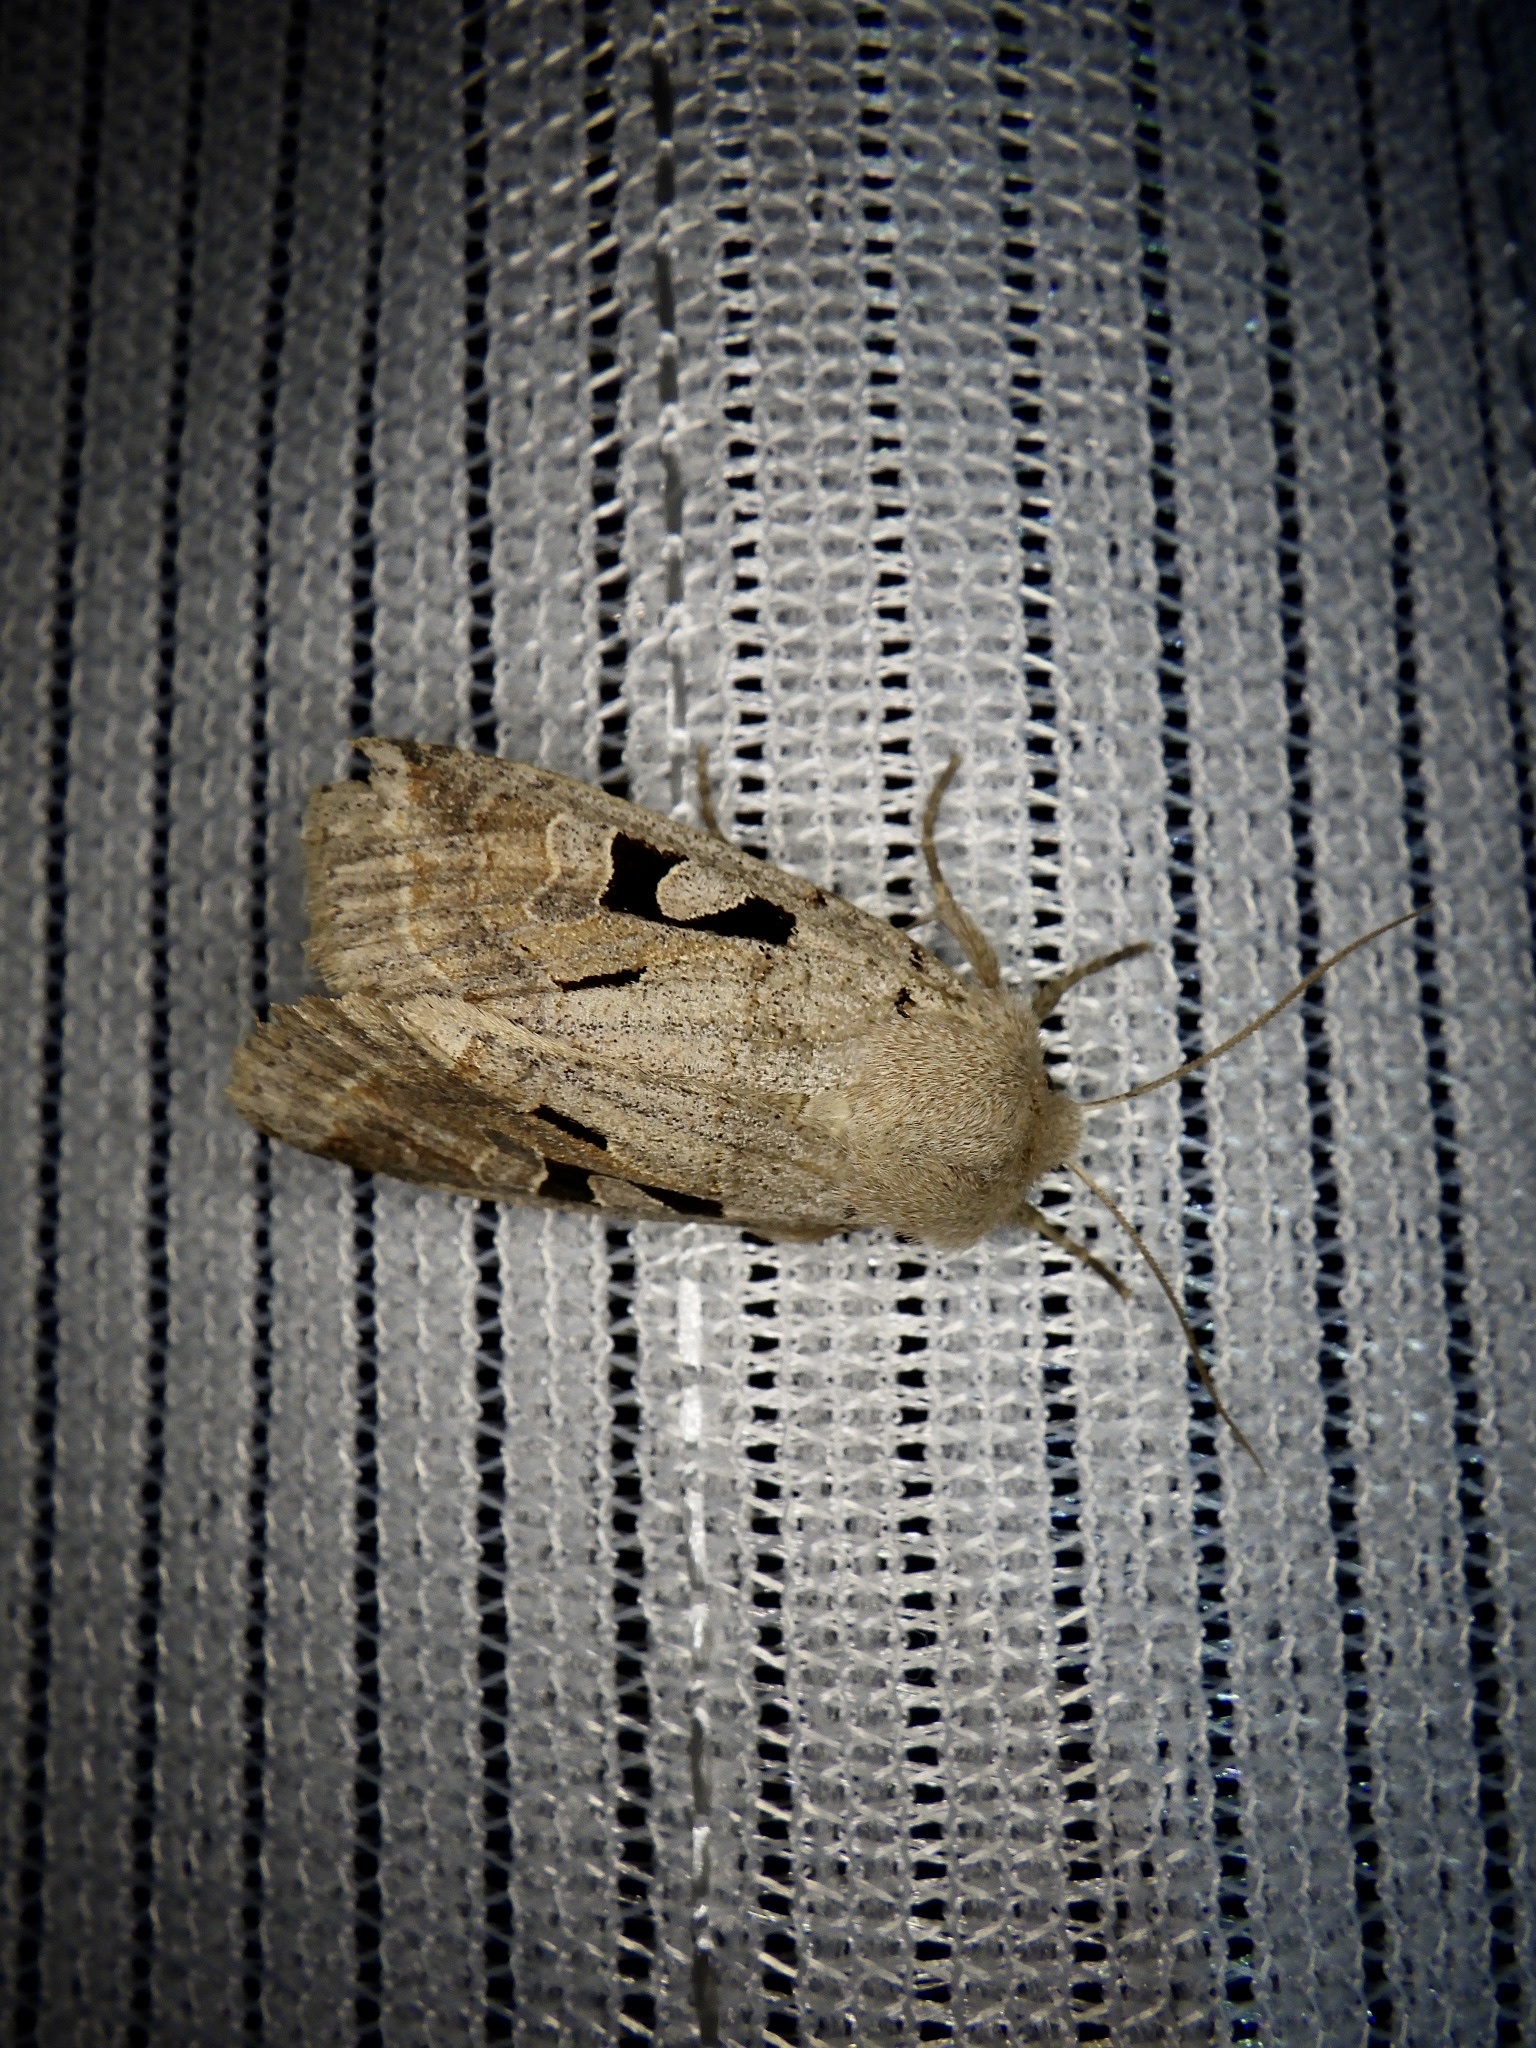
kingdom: Animalia
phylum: Arthropoda
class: Insecta
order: Lepidoptera
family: Noctuidae
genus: Orthosia
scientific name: Orthosia gothica
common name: Hebrew character
